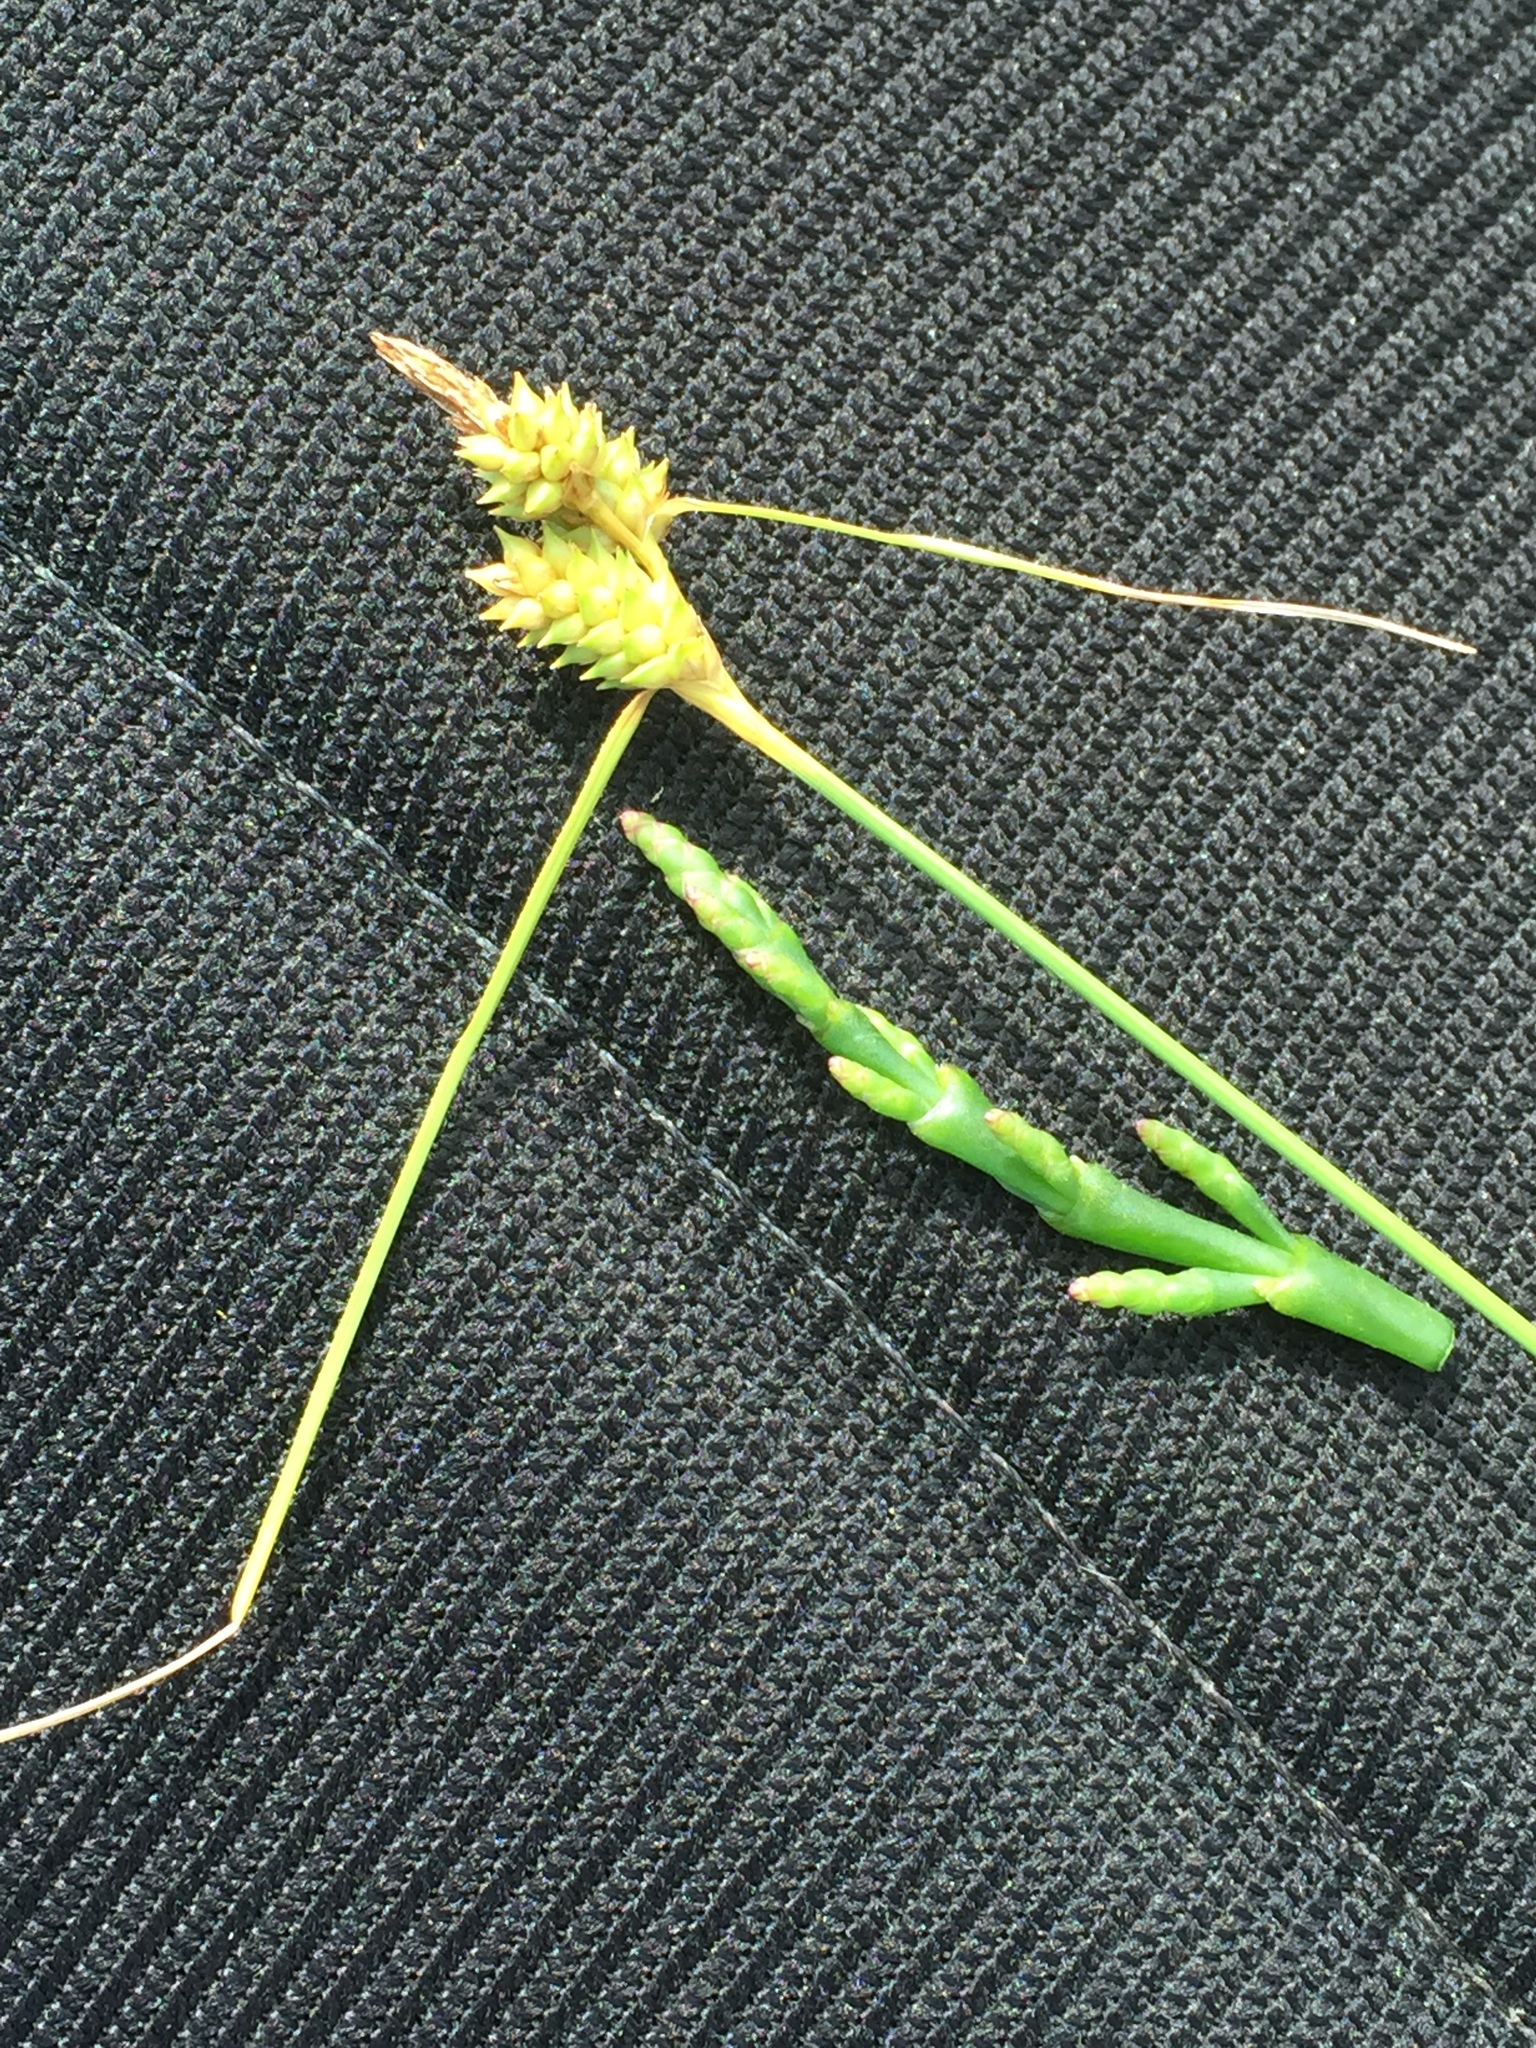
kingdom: Plantae
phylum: Tracheophyta
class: Liliopsida
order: Poales
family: Cyperaceae
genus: Carex
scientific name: Carex extensa
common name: Long-bracted sedge
